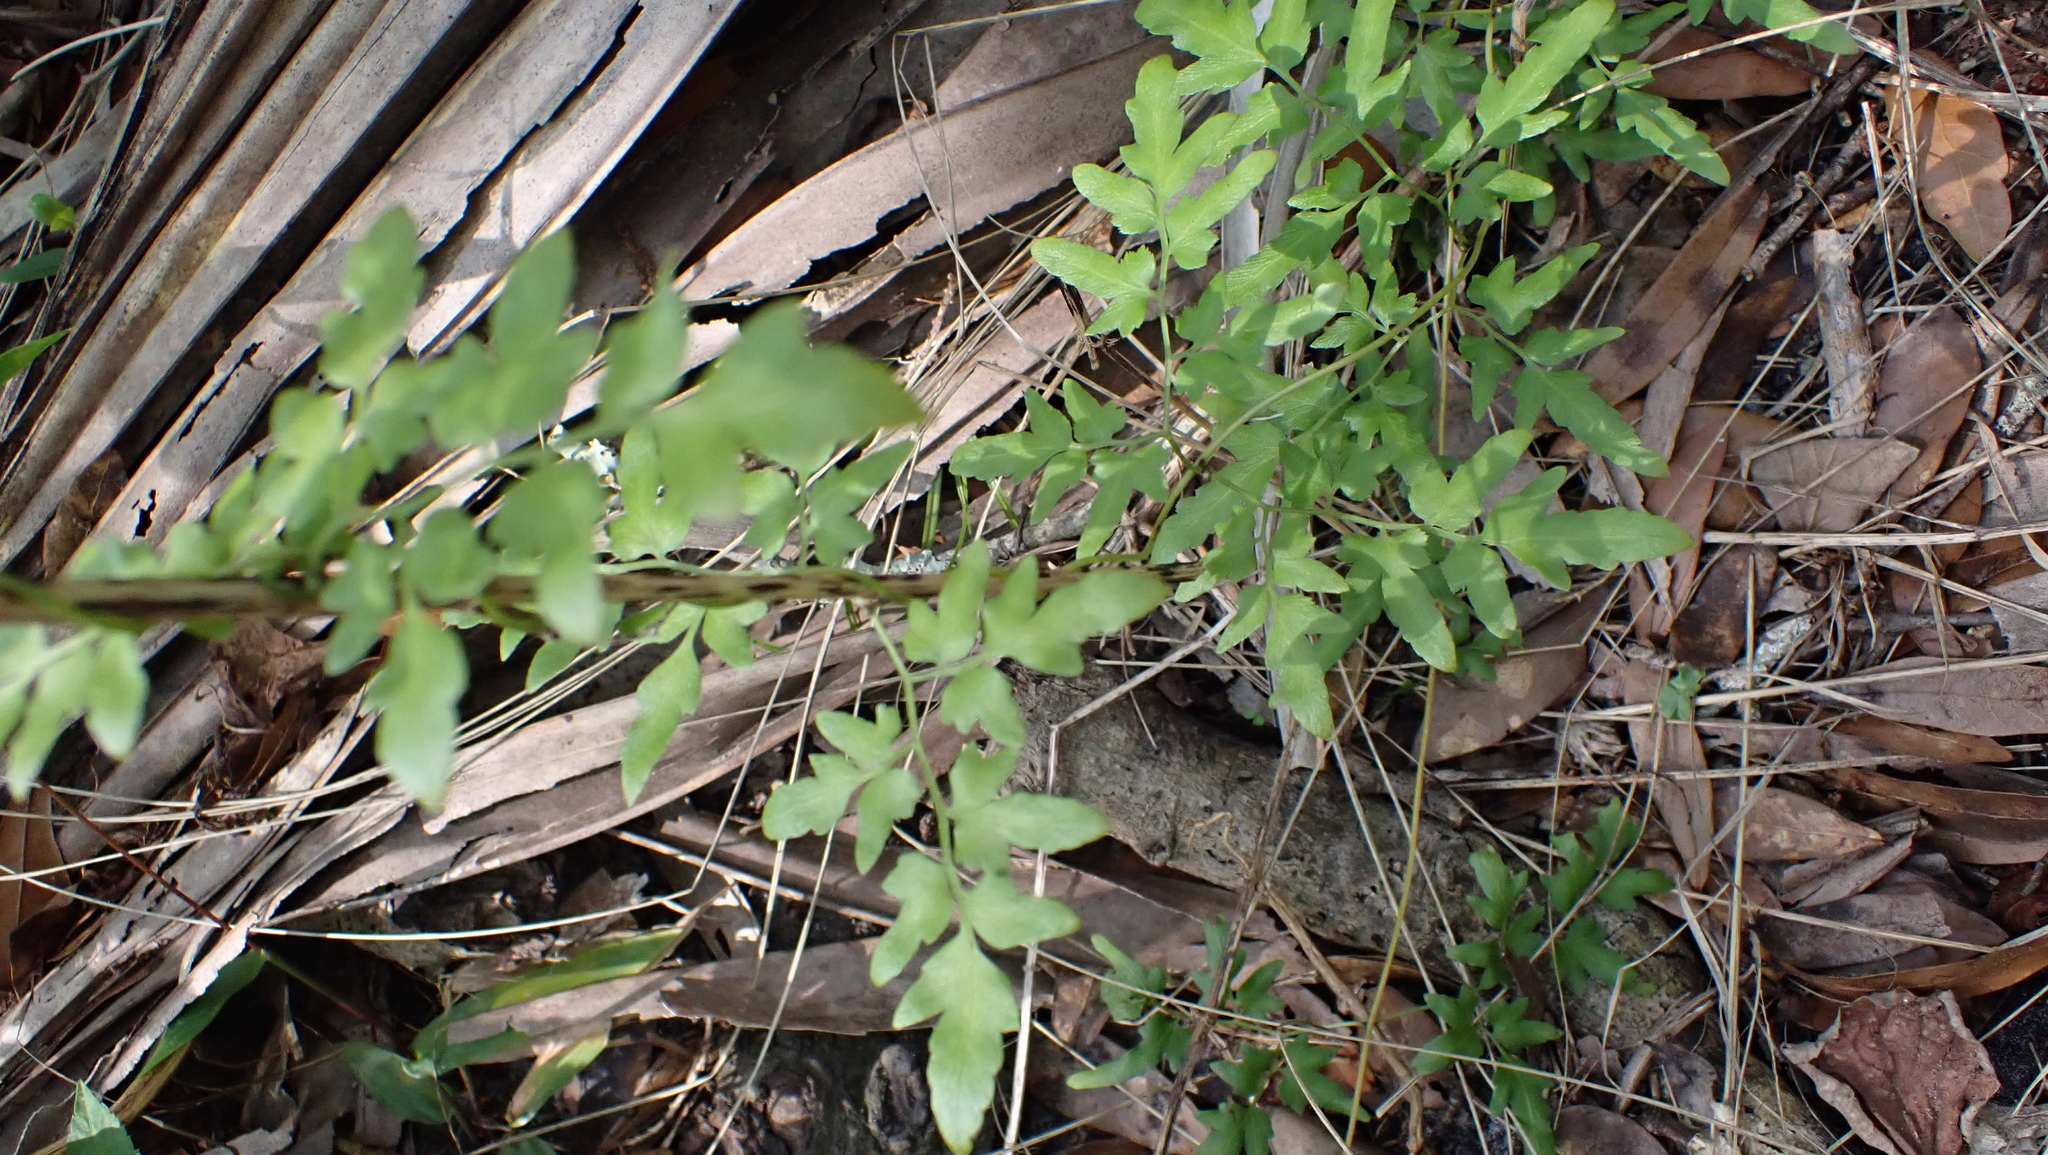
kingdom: Plantae
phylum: Tracheophyta
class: Polypodiopsida
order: Schizaeales
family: Lygodiaceae
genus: Lygodium
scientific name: Lygodium japonicum
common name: Japanese climbing fern
